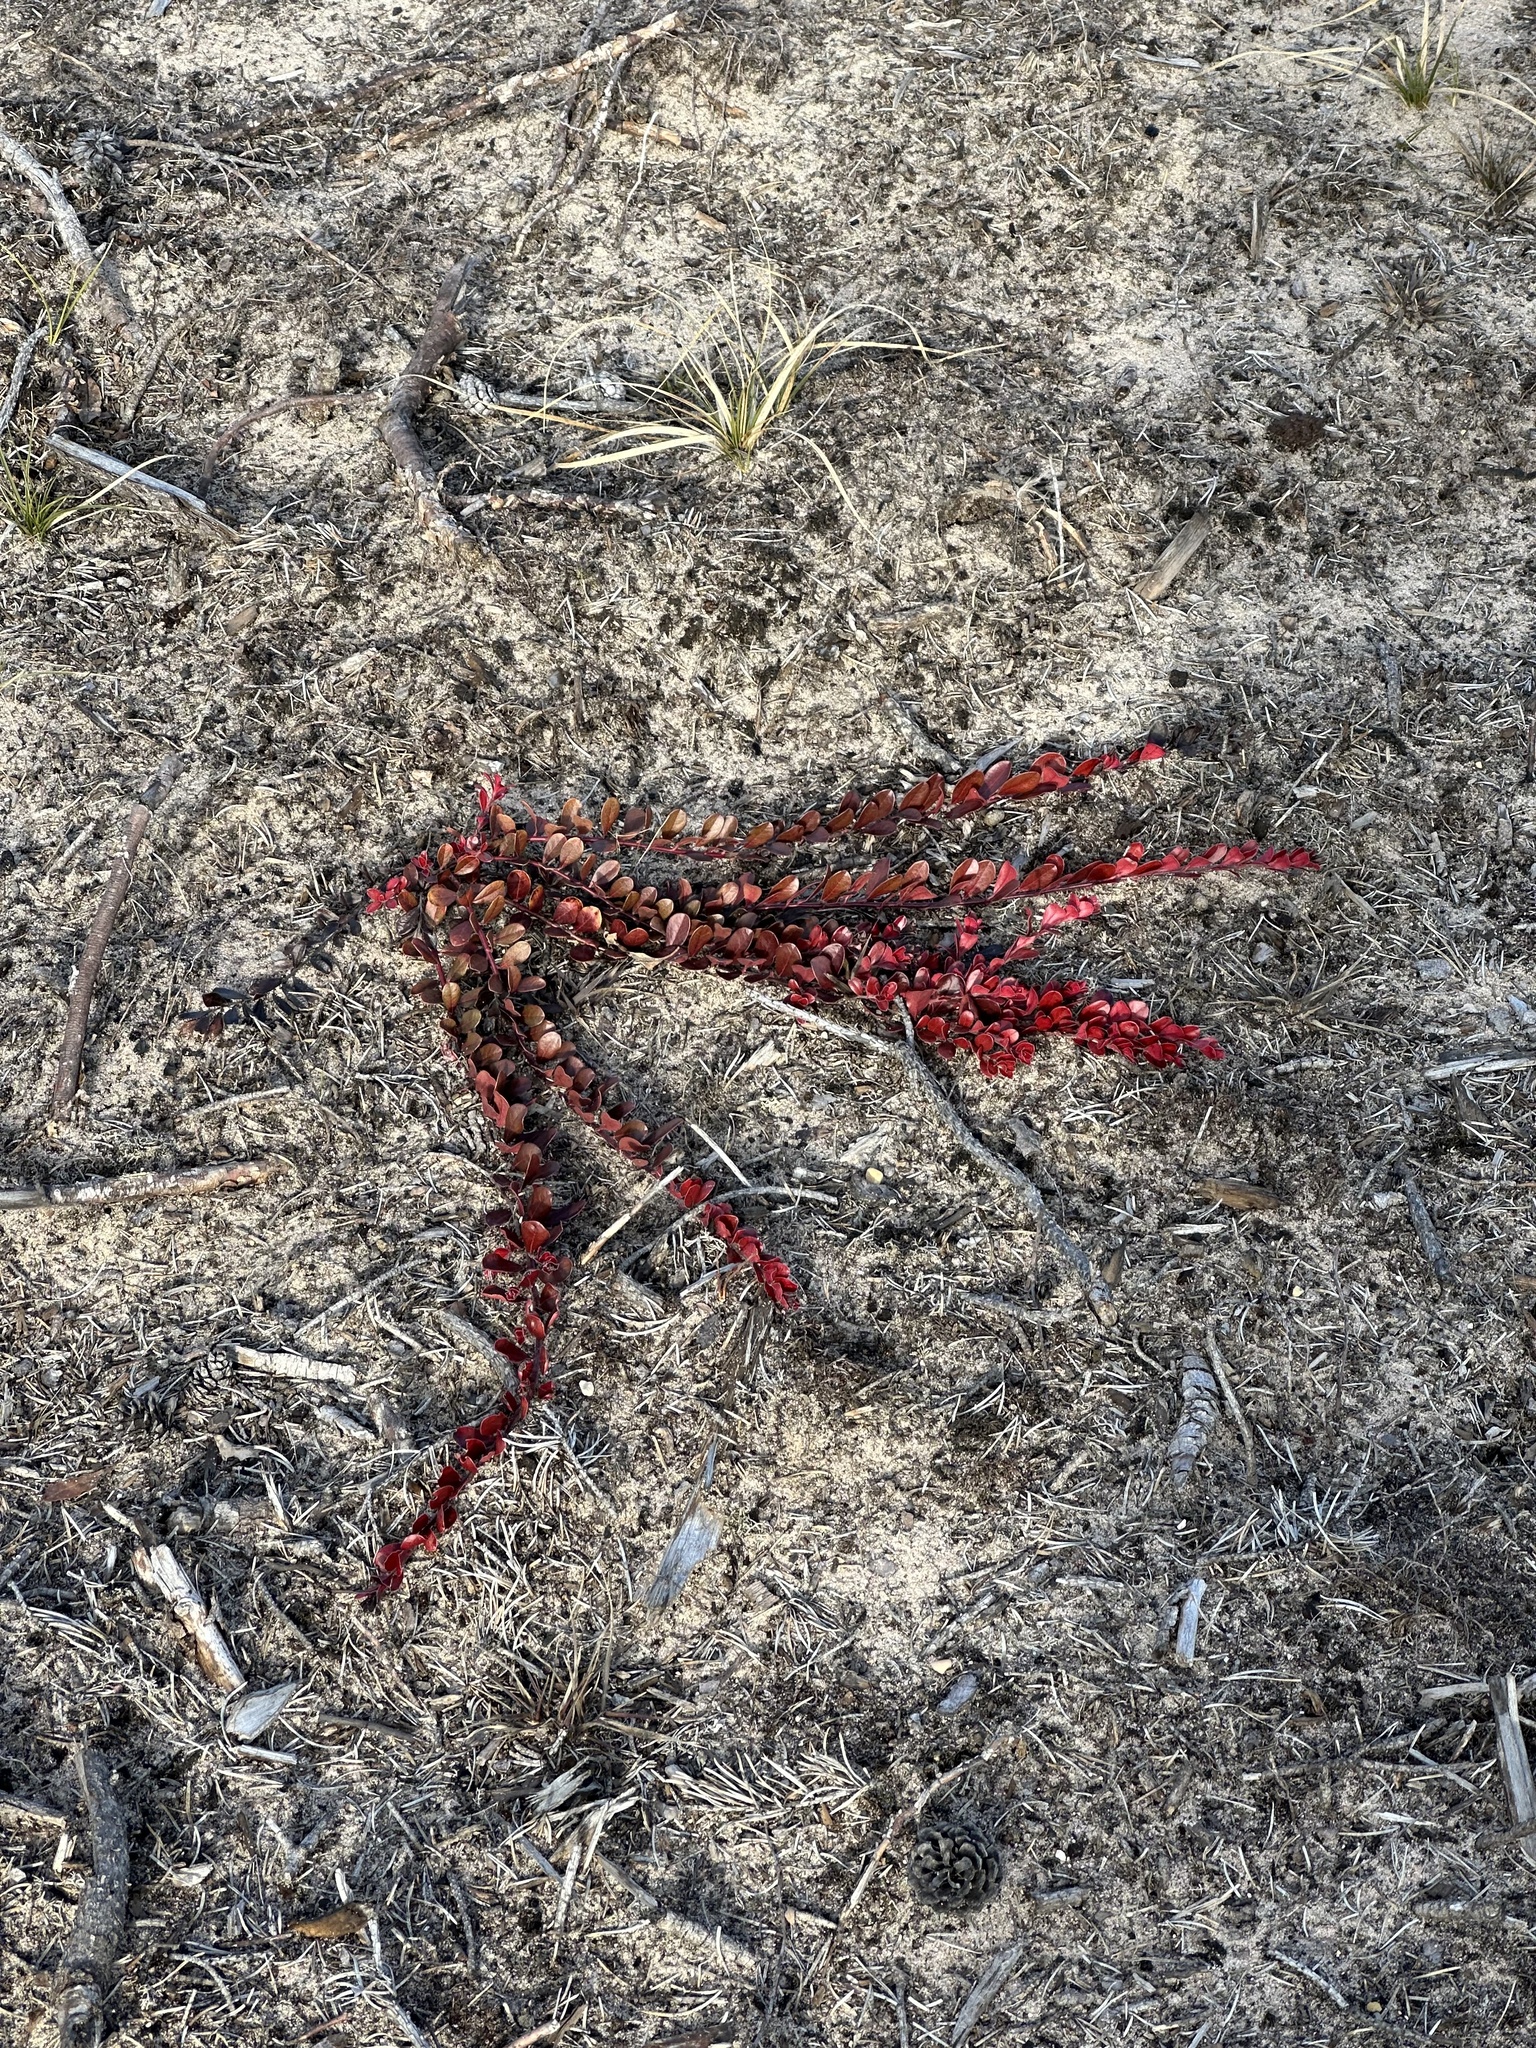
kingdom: Plantae
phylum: Tracheophyta
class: Magnoliopsida
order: Ericales
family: Ericaceae
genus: Arctostaphylos
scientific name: Arctostaphylos uva-ursi
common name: Bearberry
